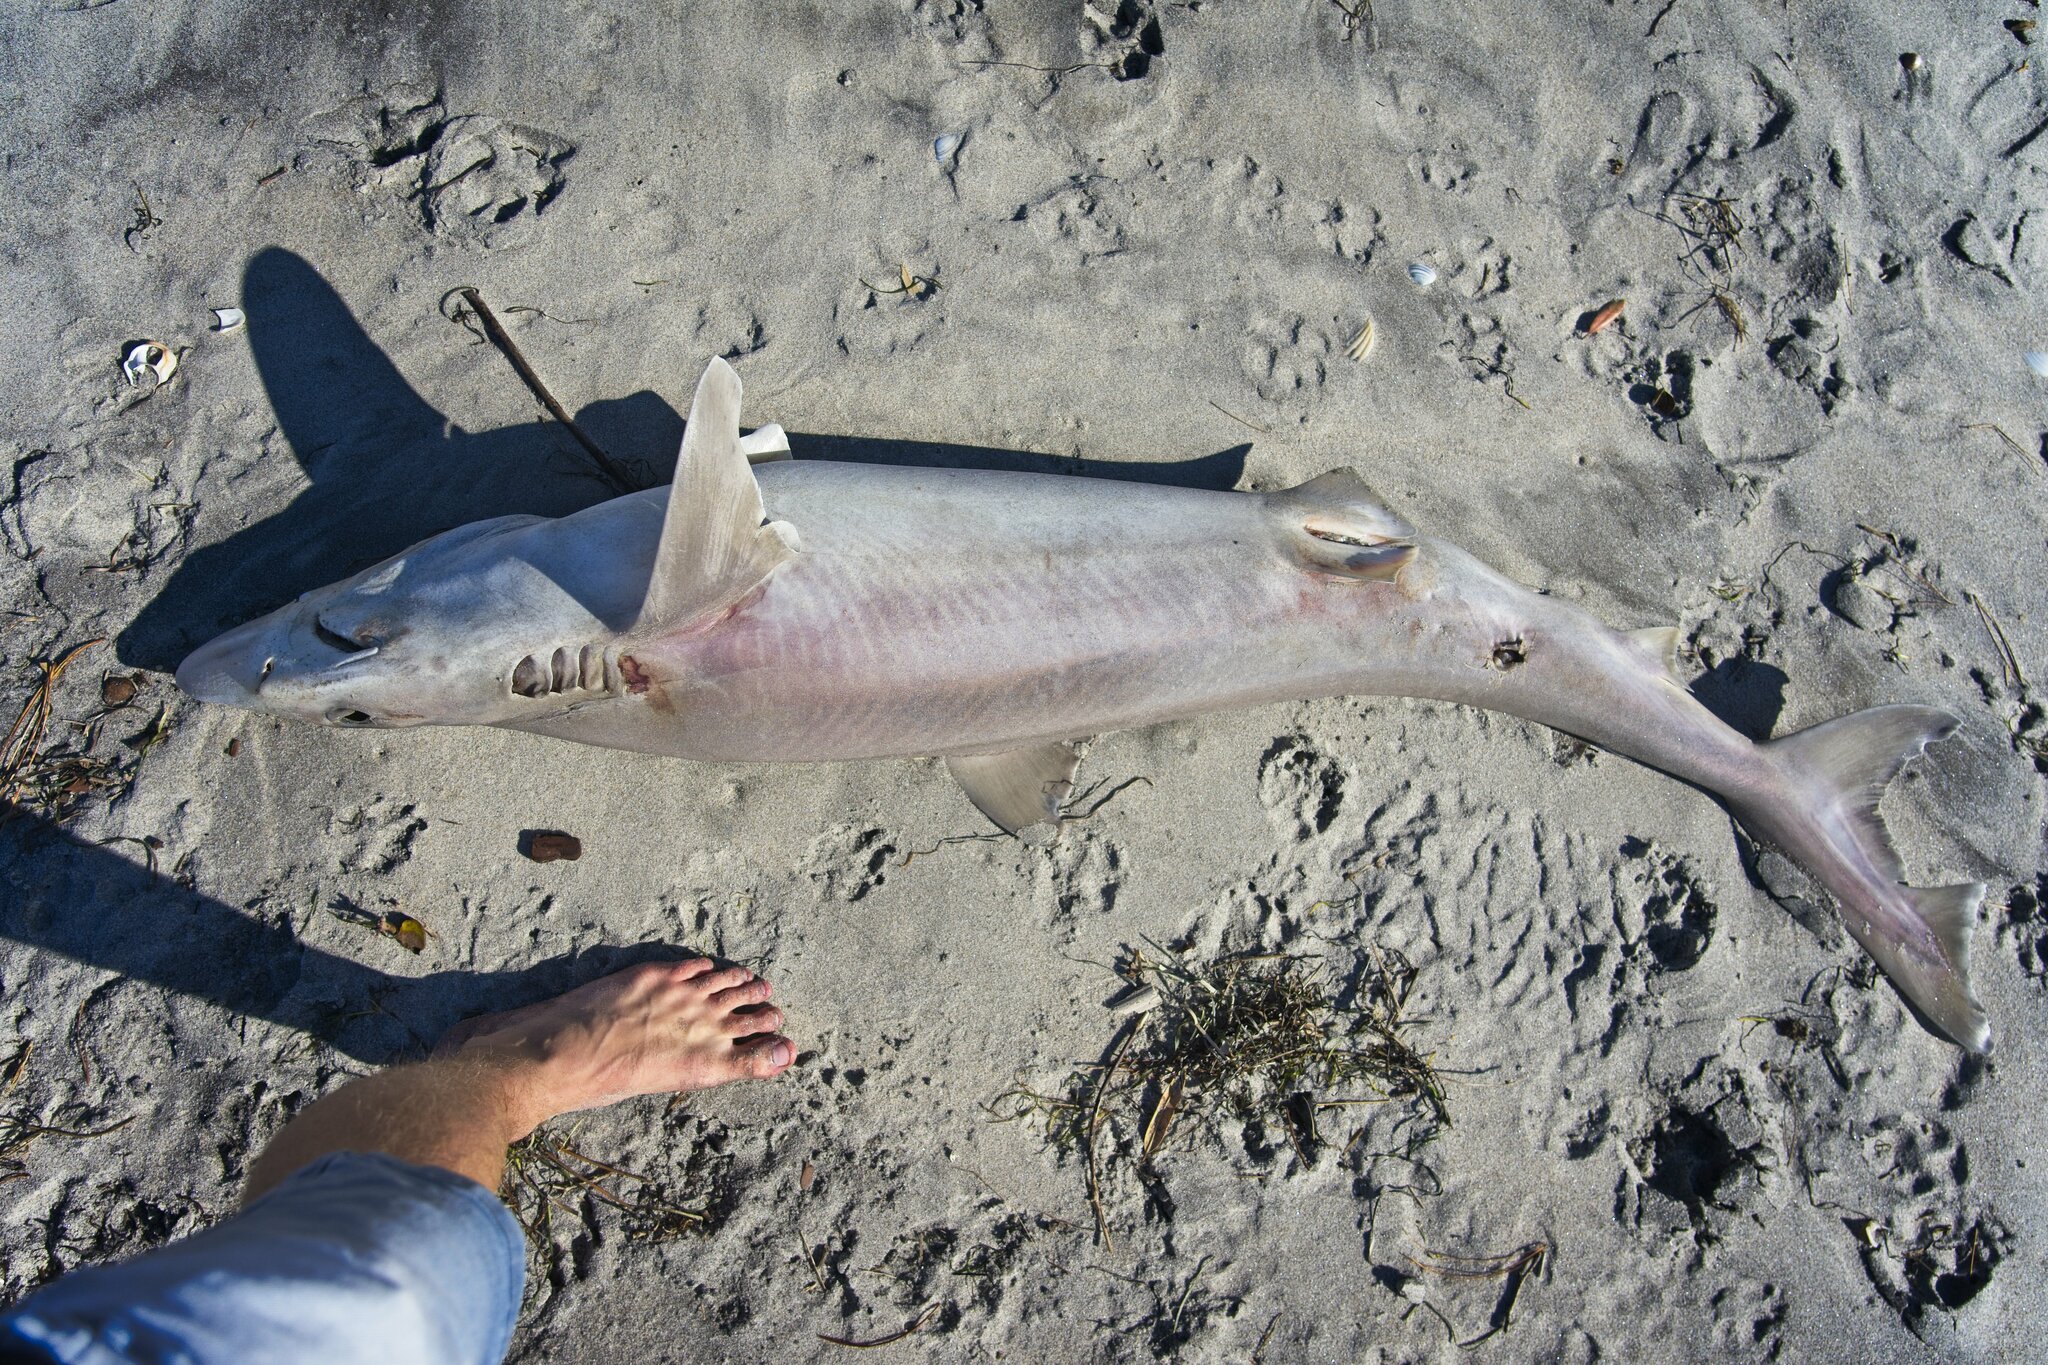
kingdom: Animalia
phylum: Chordata
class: Elasmobranchii
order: Carcharhiniformes
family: Triakidae
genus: Galeorhinus
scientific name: Galeorhinus galeus
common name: Tope
